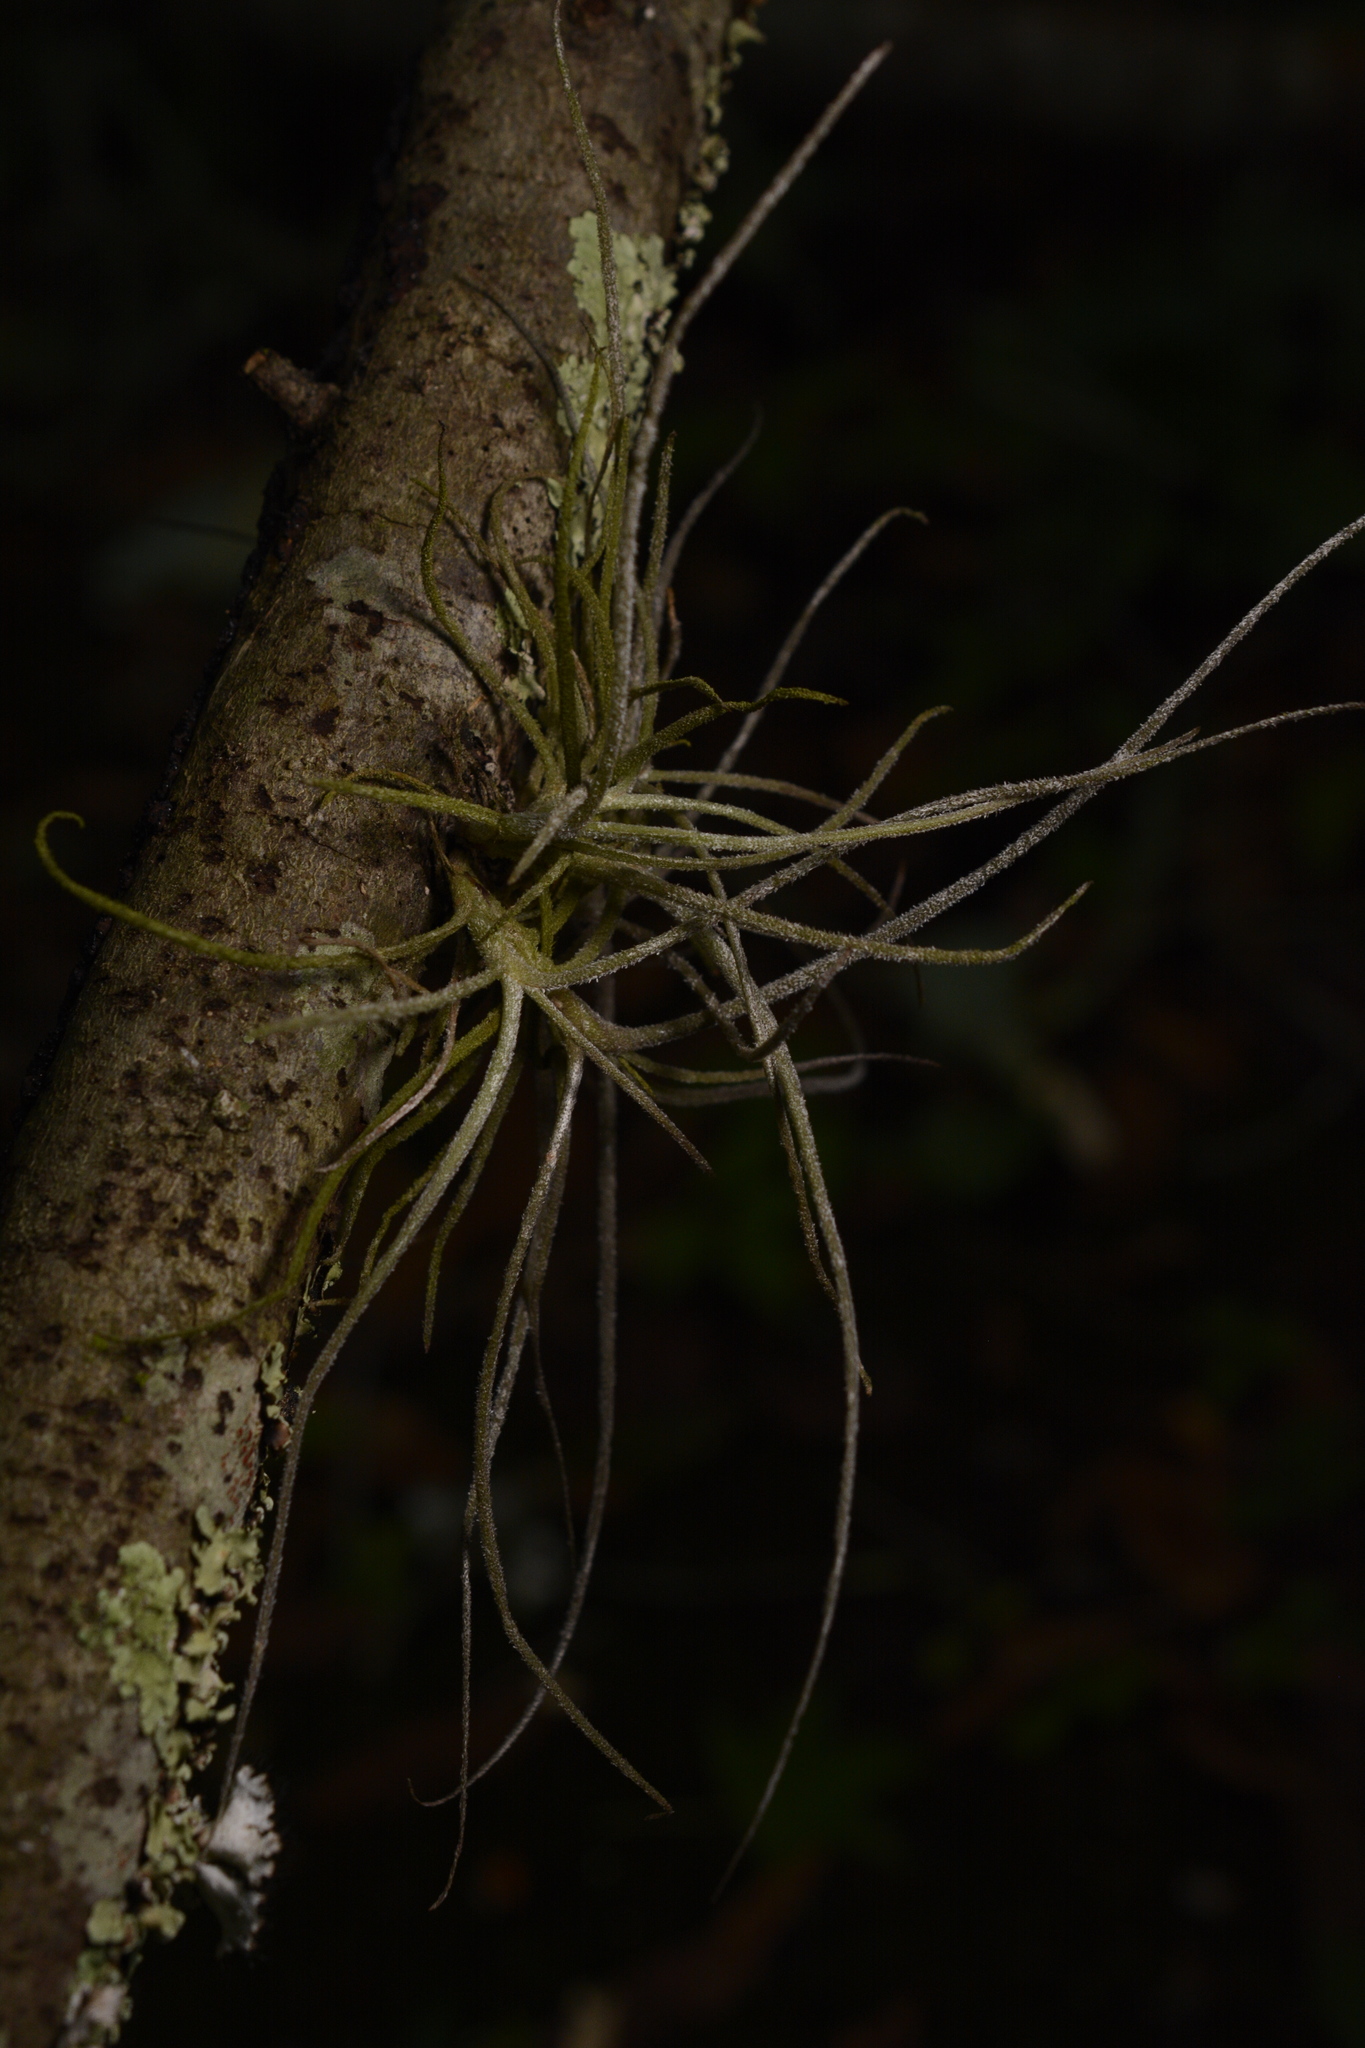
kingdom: Plantae
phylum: Tracheophyta
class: Liliopsida
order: Poales
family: Bromeliaceae
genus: Tillandsia
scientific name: Tillandsia recurvata
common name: Small ballmoss
